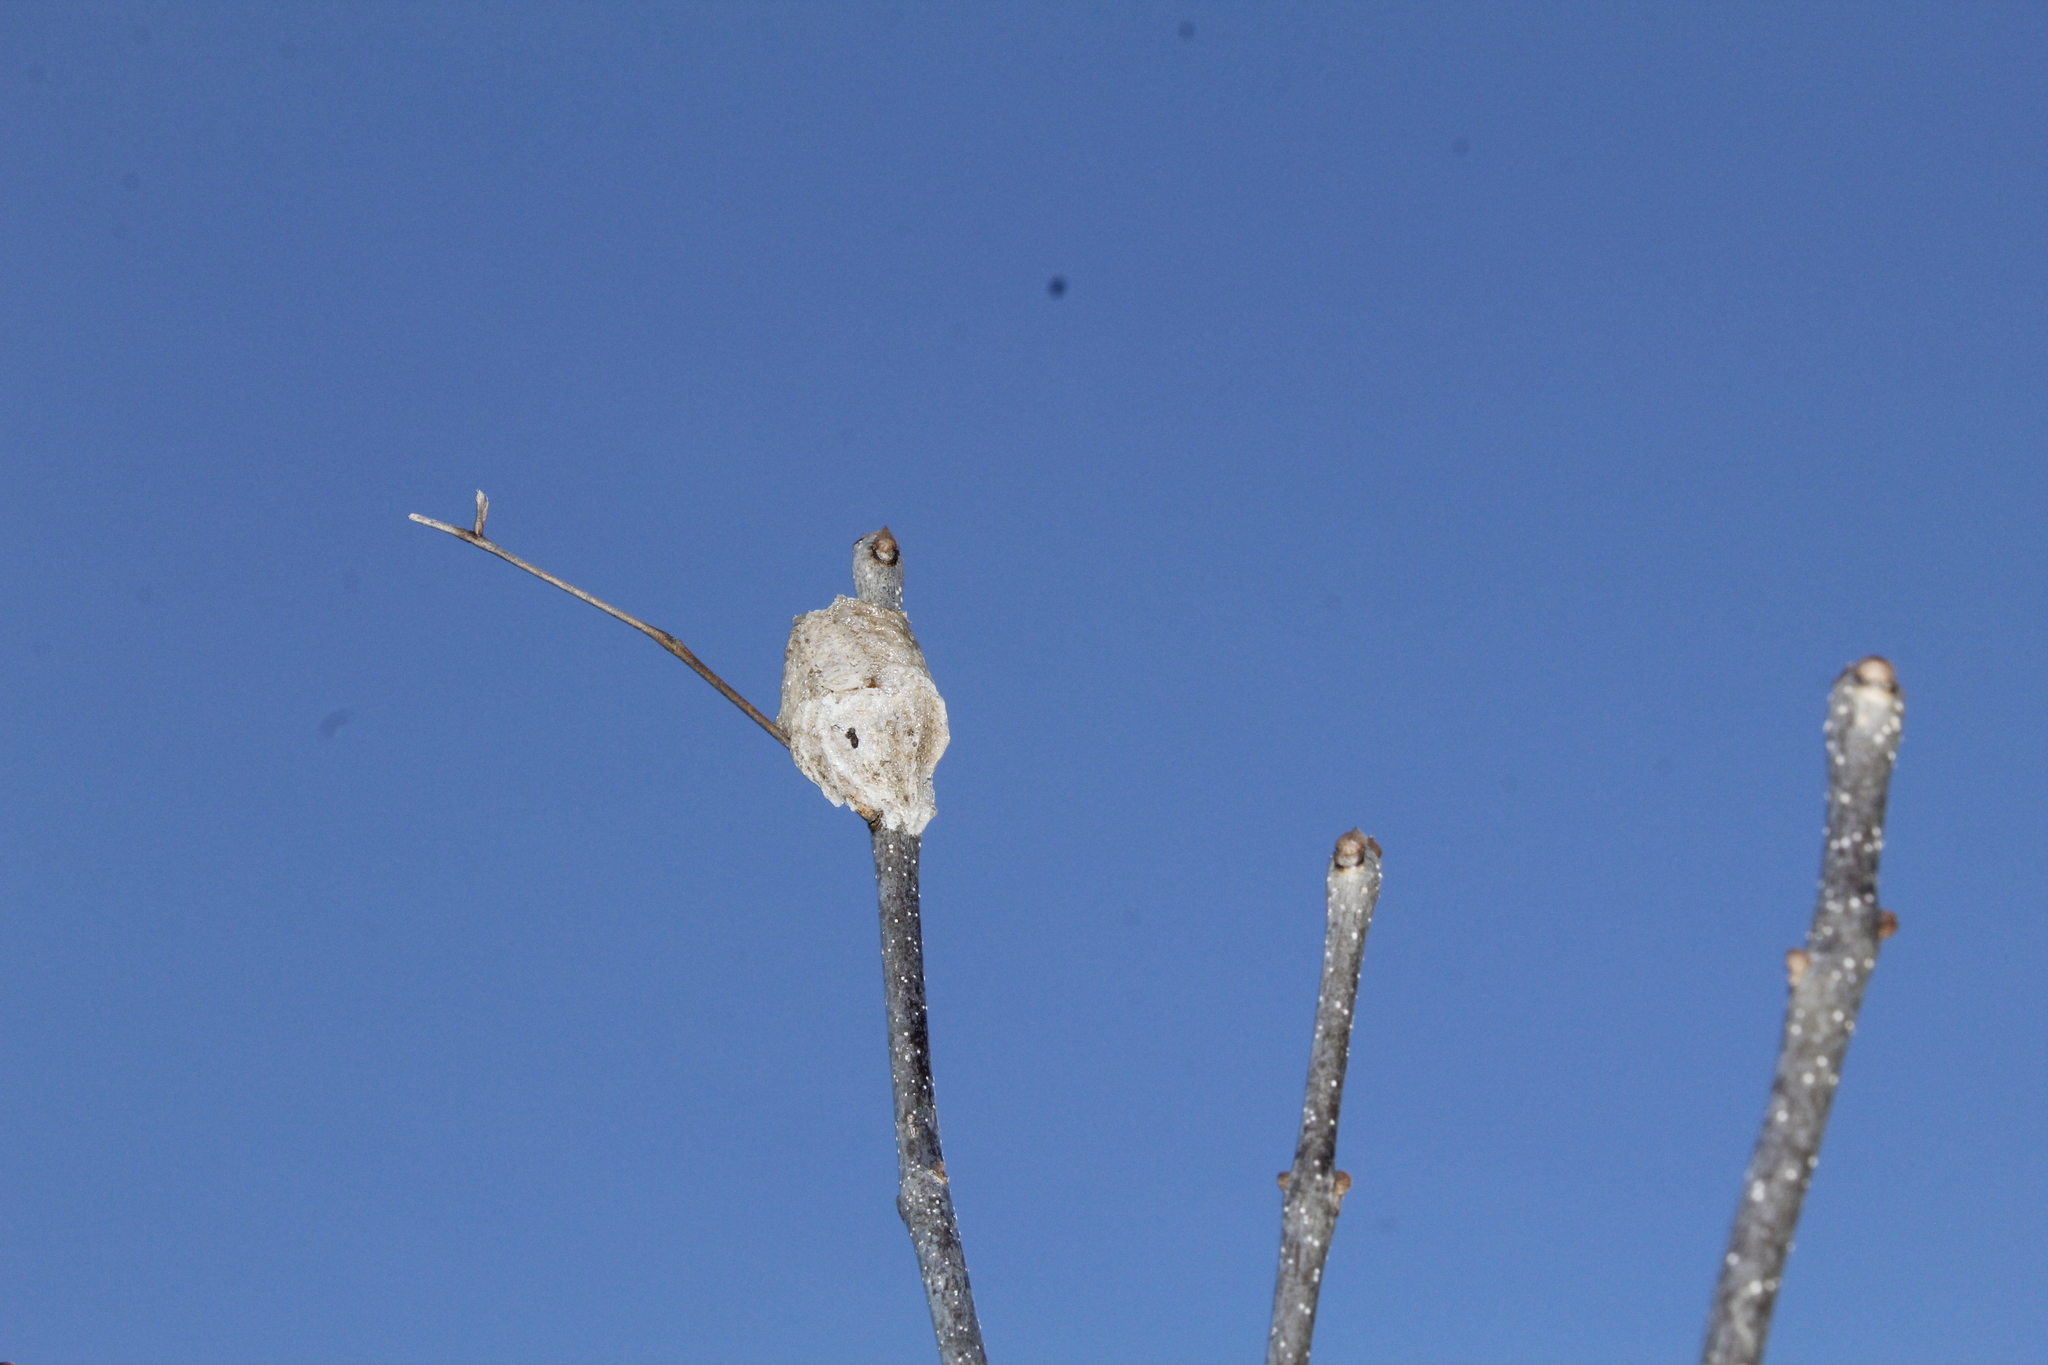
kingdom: Animalia
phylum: Arthropoda
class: Insecta
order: Mantodea
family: Mantidae
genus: Tenodera
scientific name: Tenodera sinensis
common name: Chinese mantis
